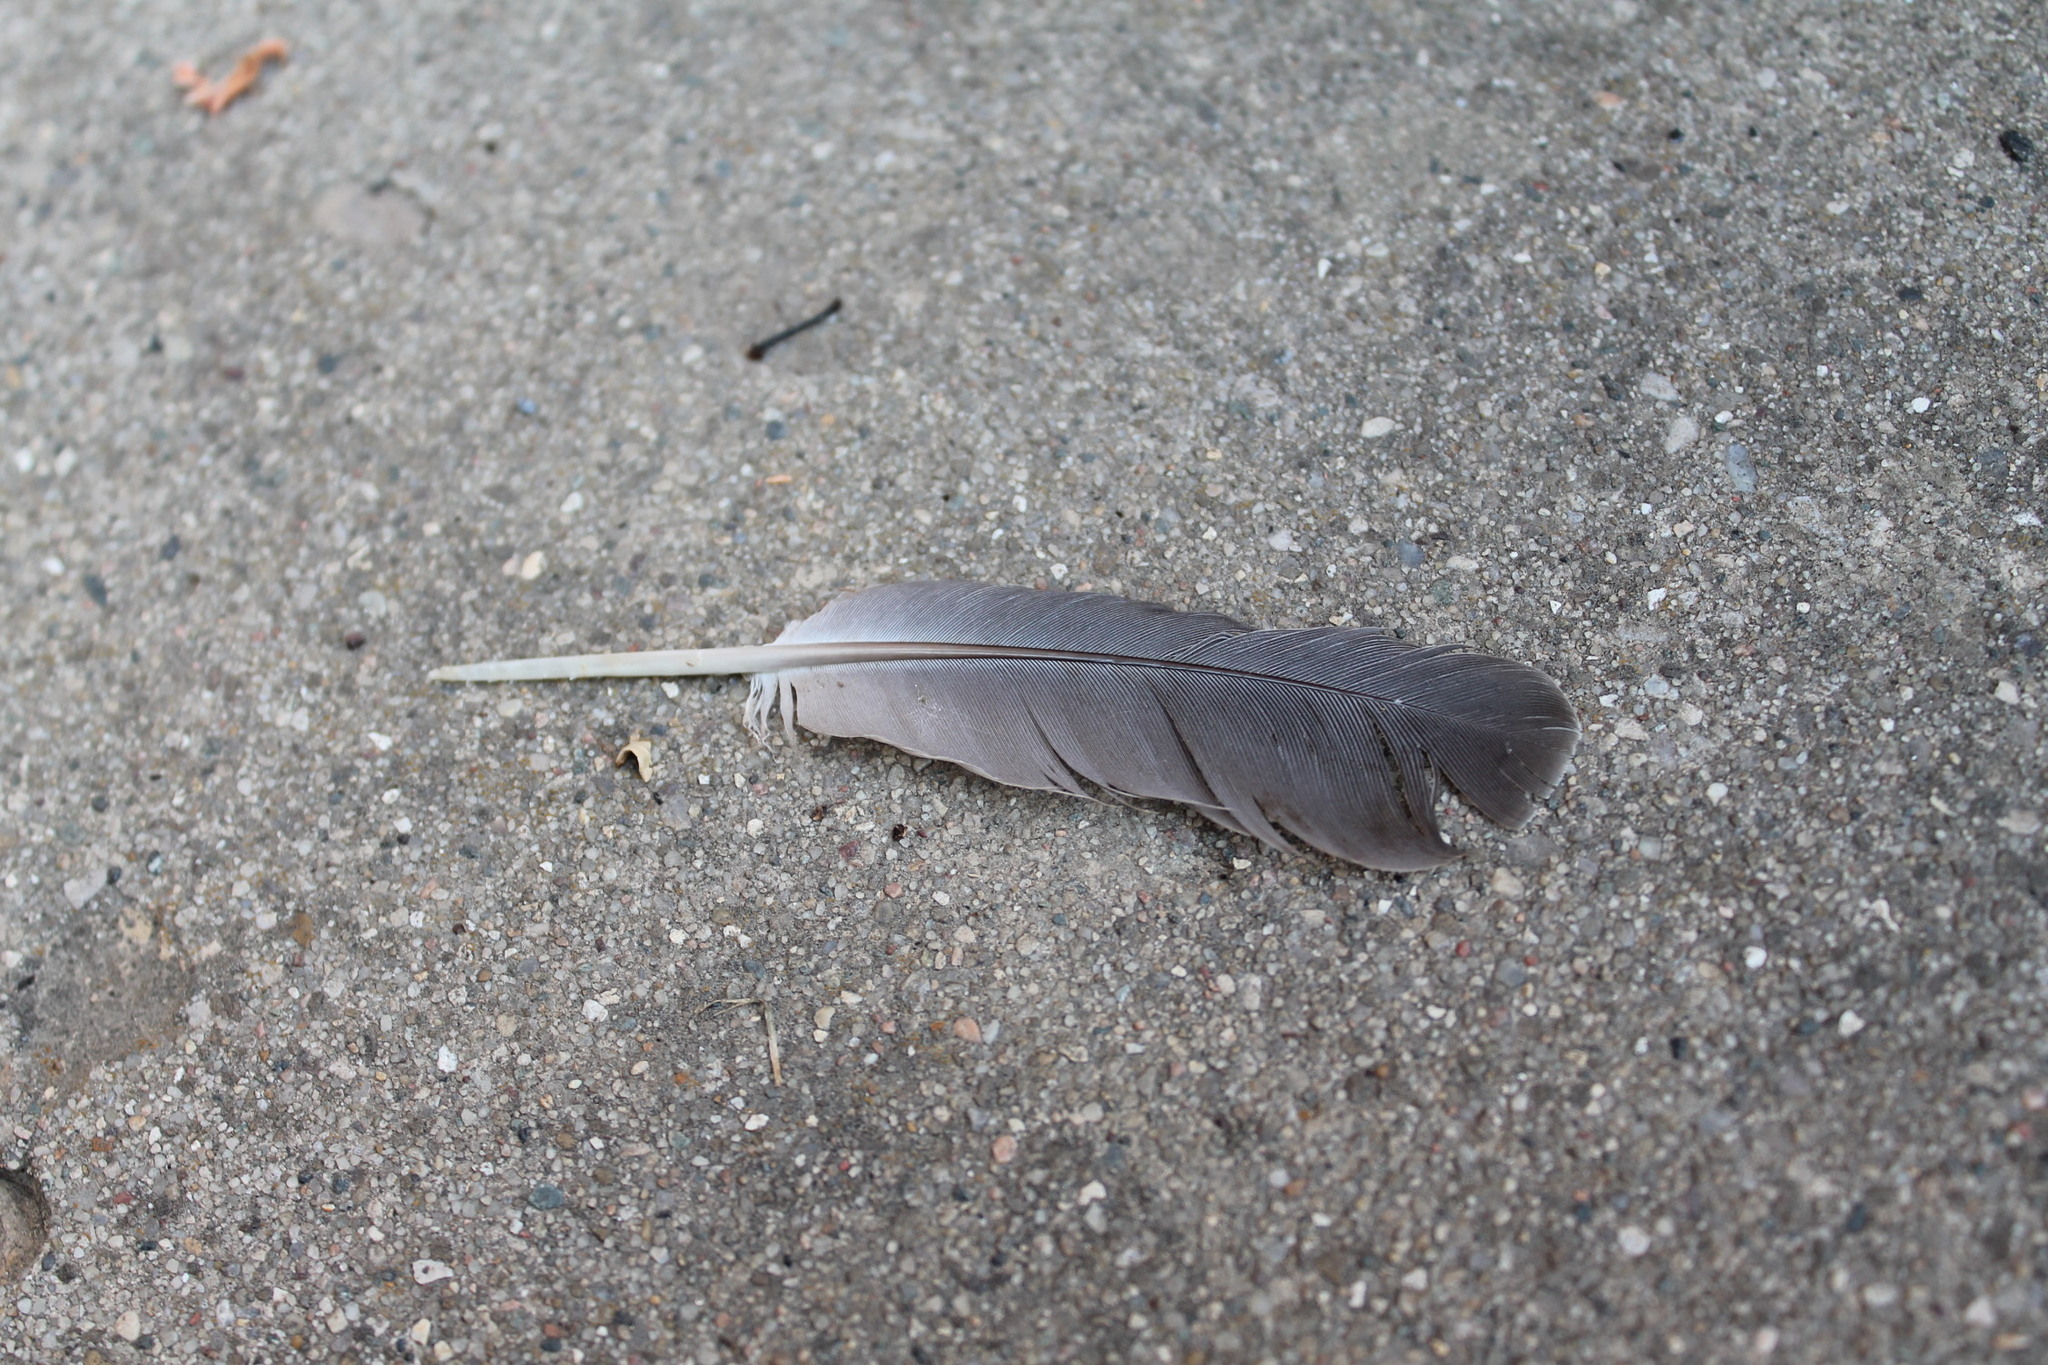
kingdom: Animalia
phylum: Chordata
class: Aves
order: Columbiformes
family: Columbidae
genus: Zenaida
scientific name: Zenaida macroura
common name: Mourning dove
